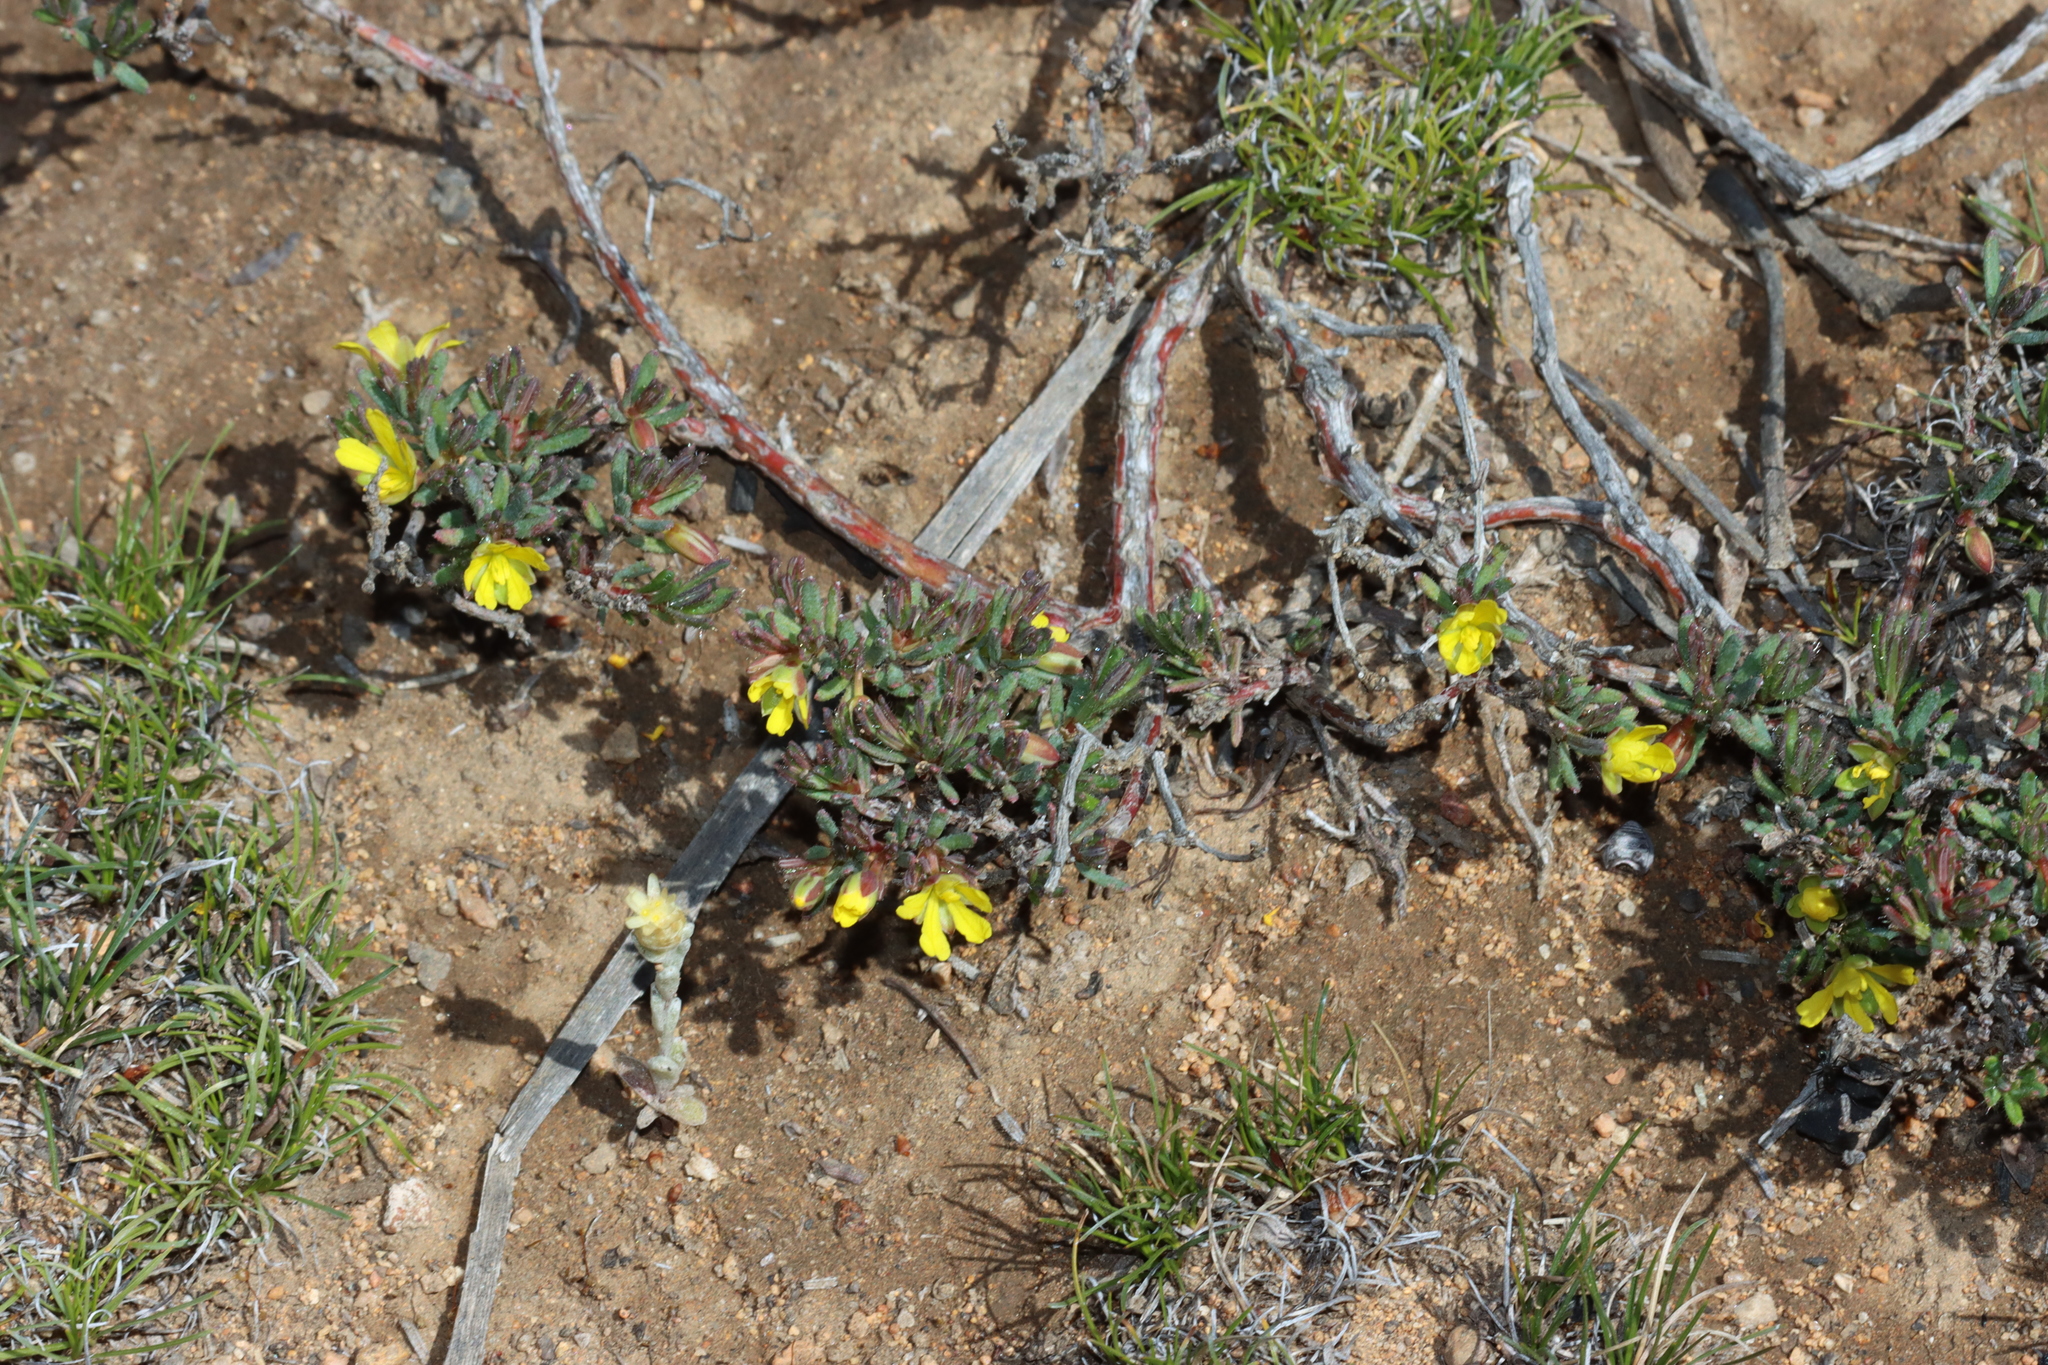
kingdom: Plantae
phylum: Tracheophyta
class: Magnoliopsida
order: Dilleniales
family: Dilleniaceae
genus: Hibbertia
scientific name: Hibbertia
